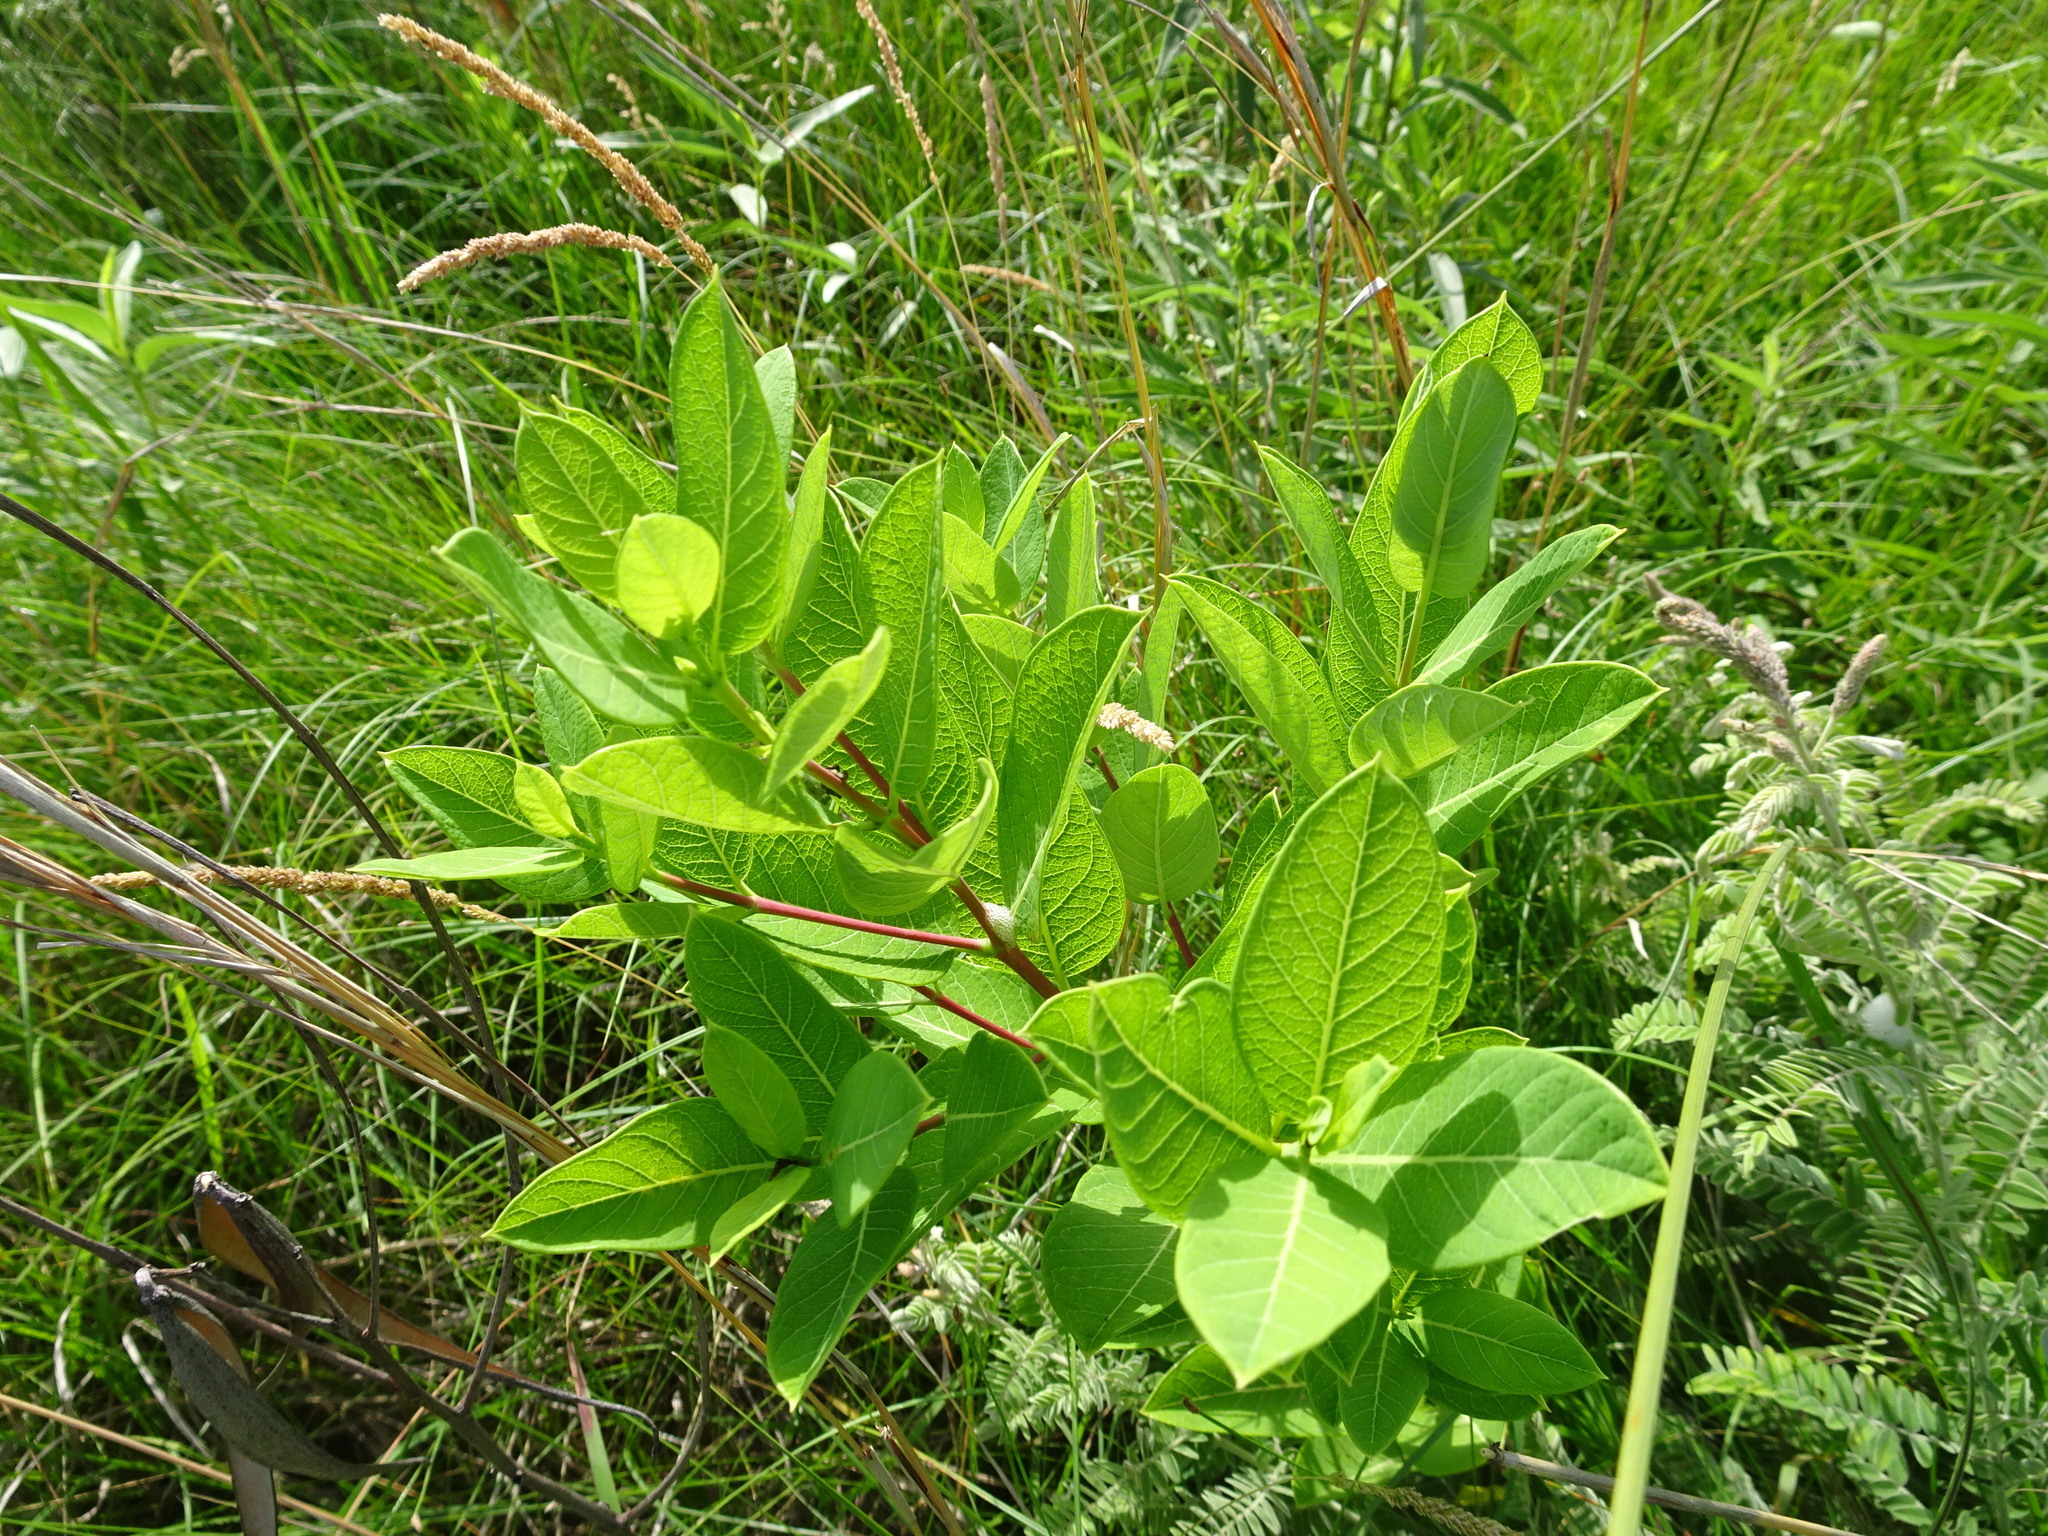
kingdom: Plantae
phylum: Tracheophyta
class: Magnoliopsida
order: Gentianales
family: Apocynaceae
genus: Apocynum
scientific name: Apocynum cannabinum
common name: Hemp dogbane
